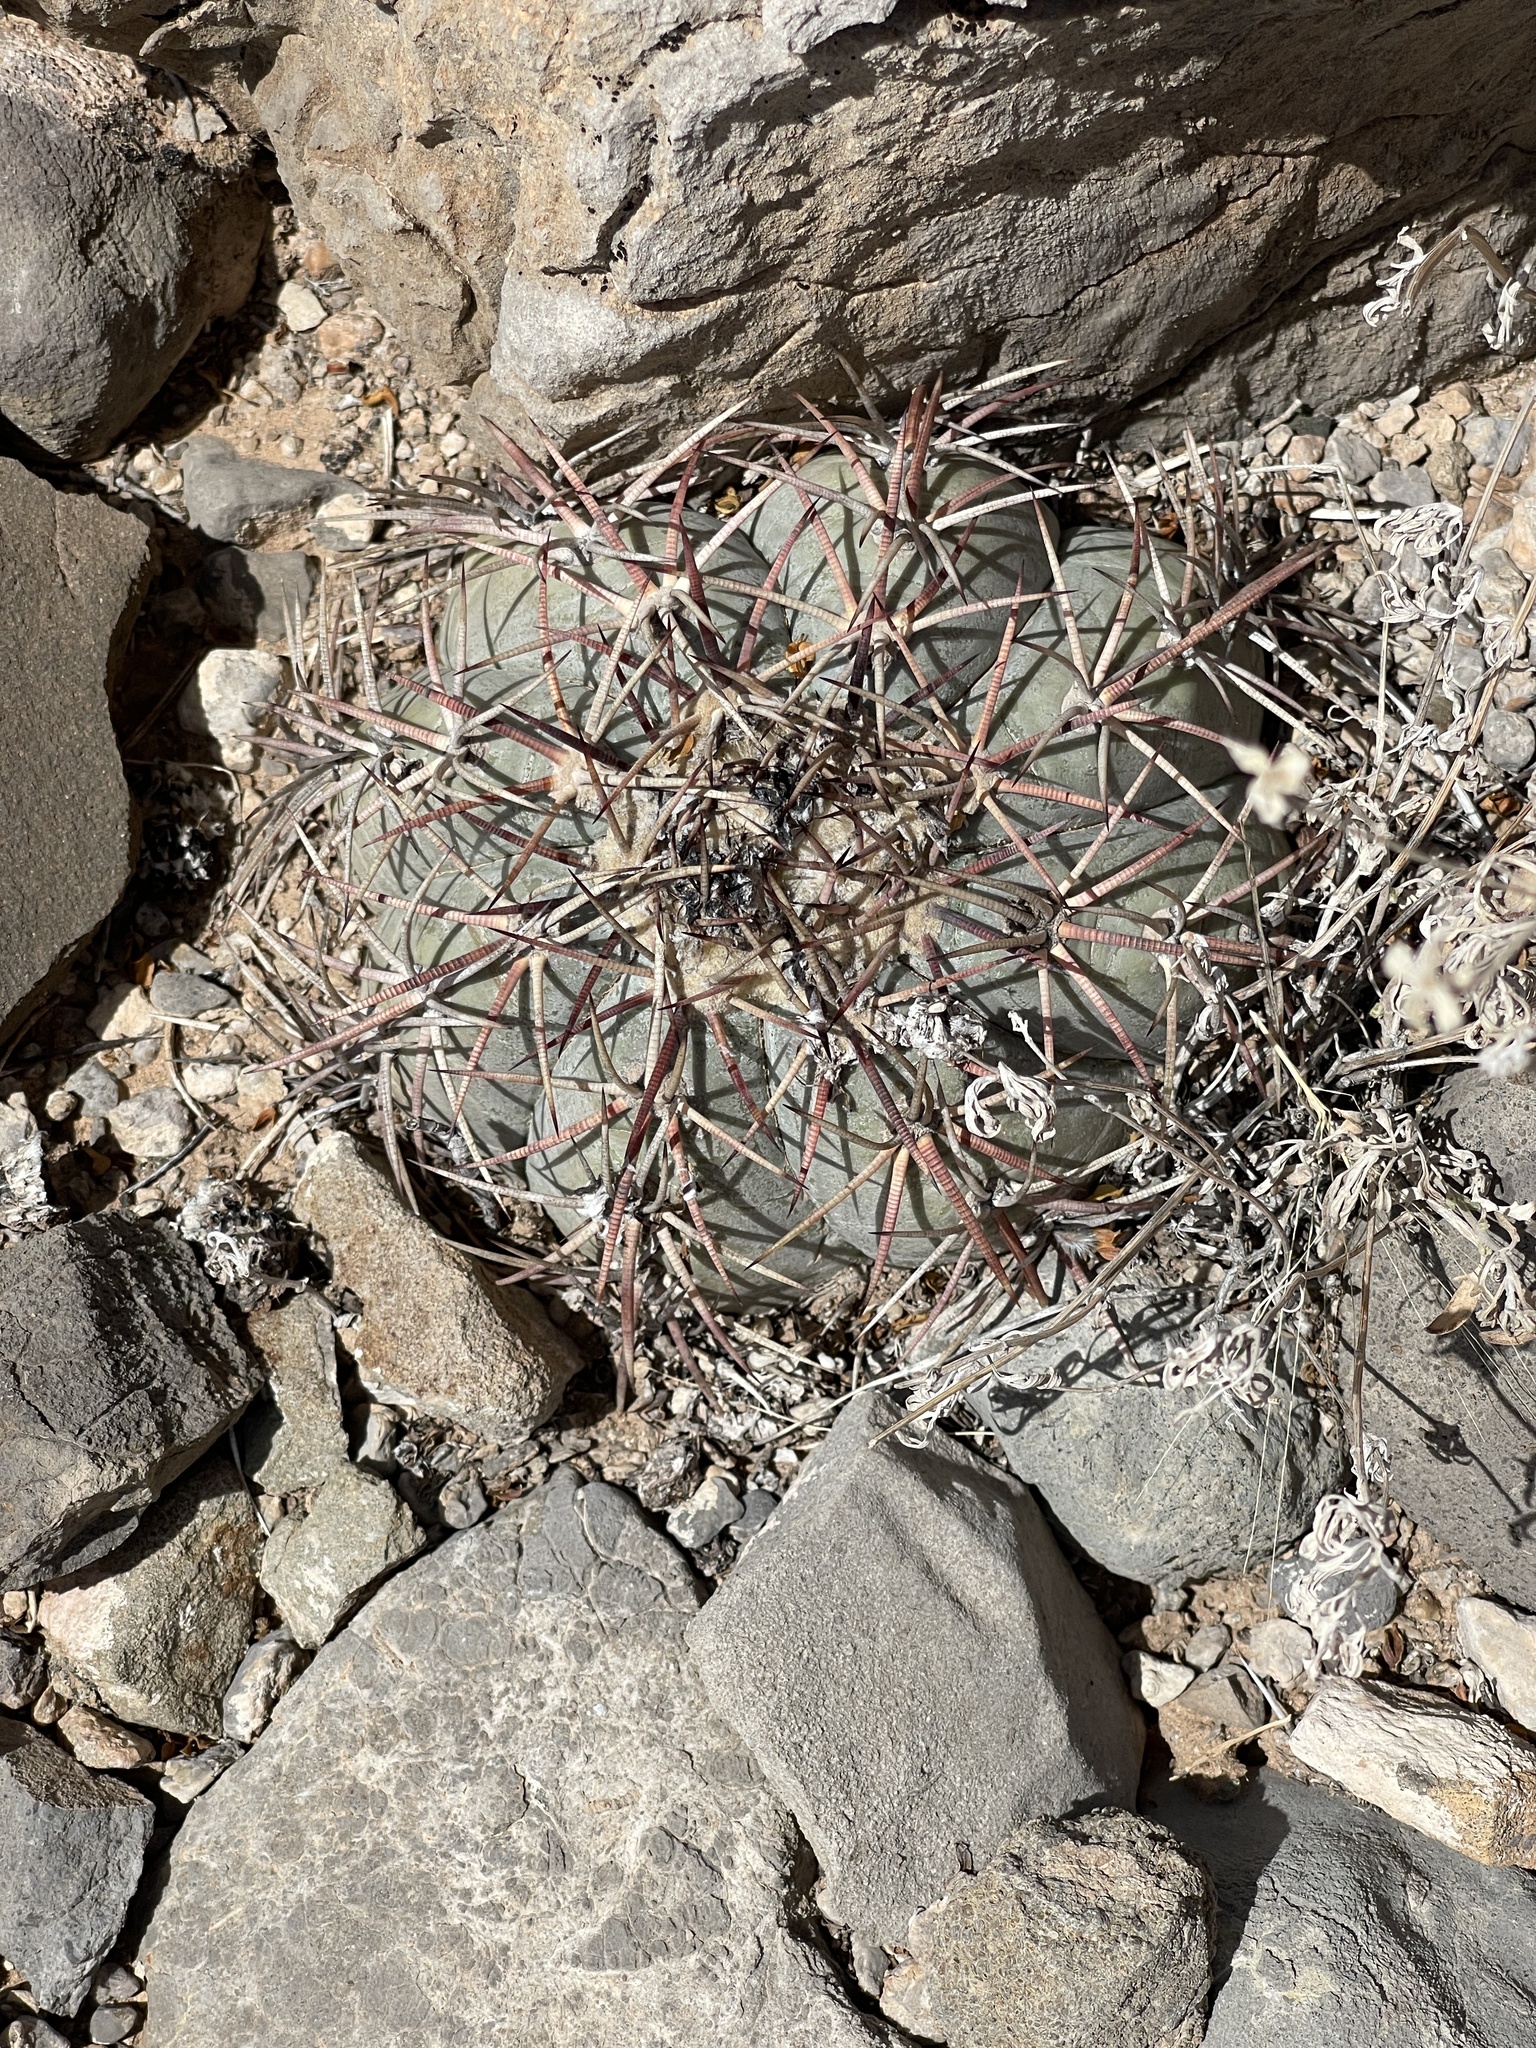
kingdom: Plantae
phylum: Tracheophyta
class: Magnoliopsida
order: Caryophyllales
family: Cactaceae
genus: Echinocactus
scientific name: Echinocactus horizonthalonius
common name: Devilshead
